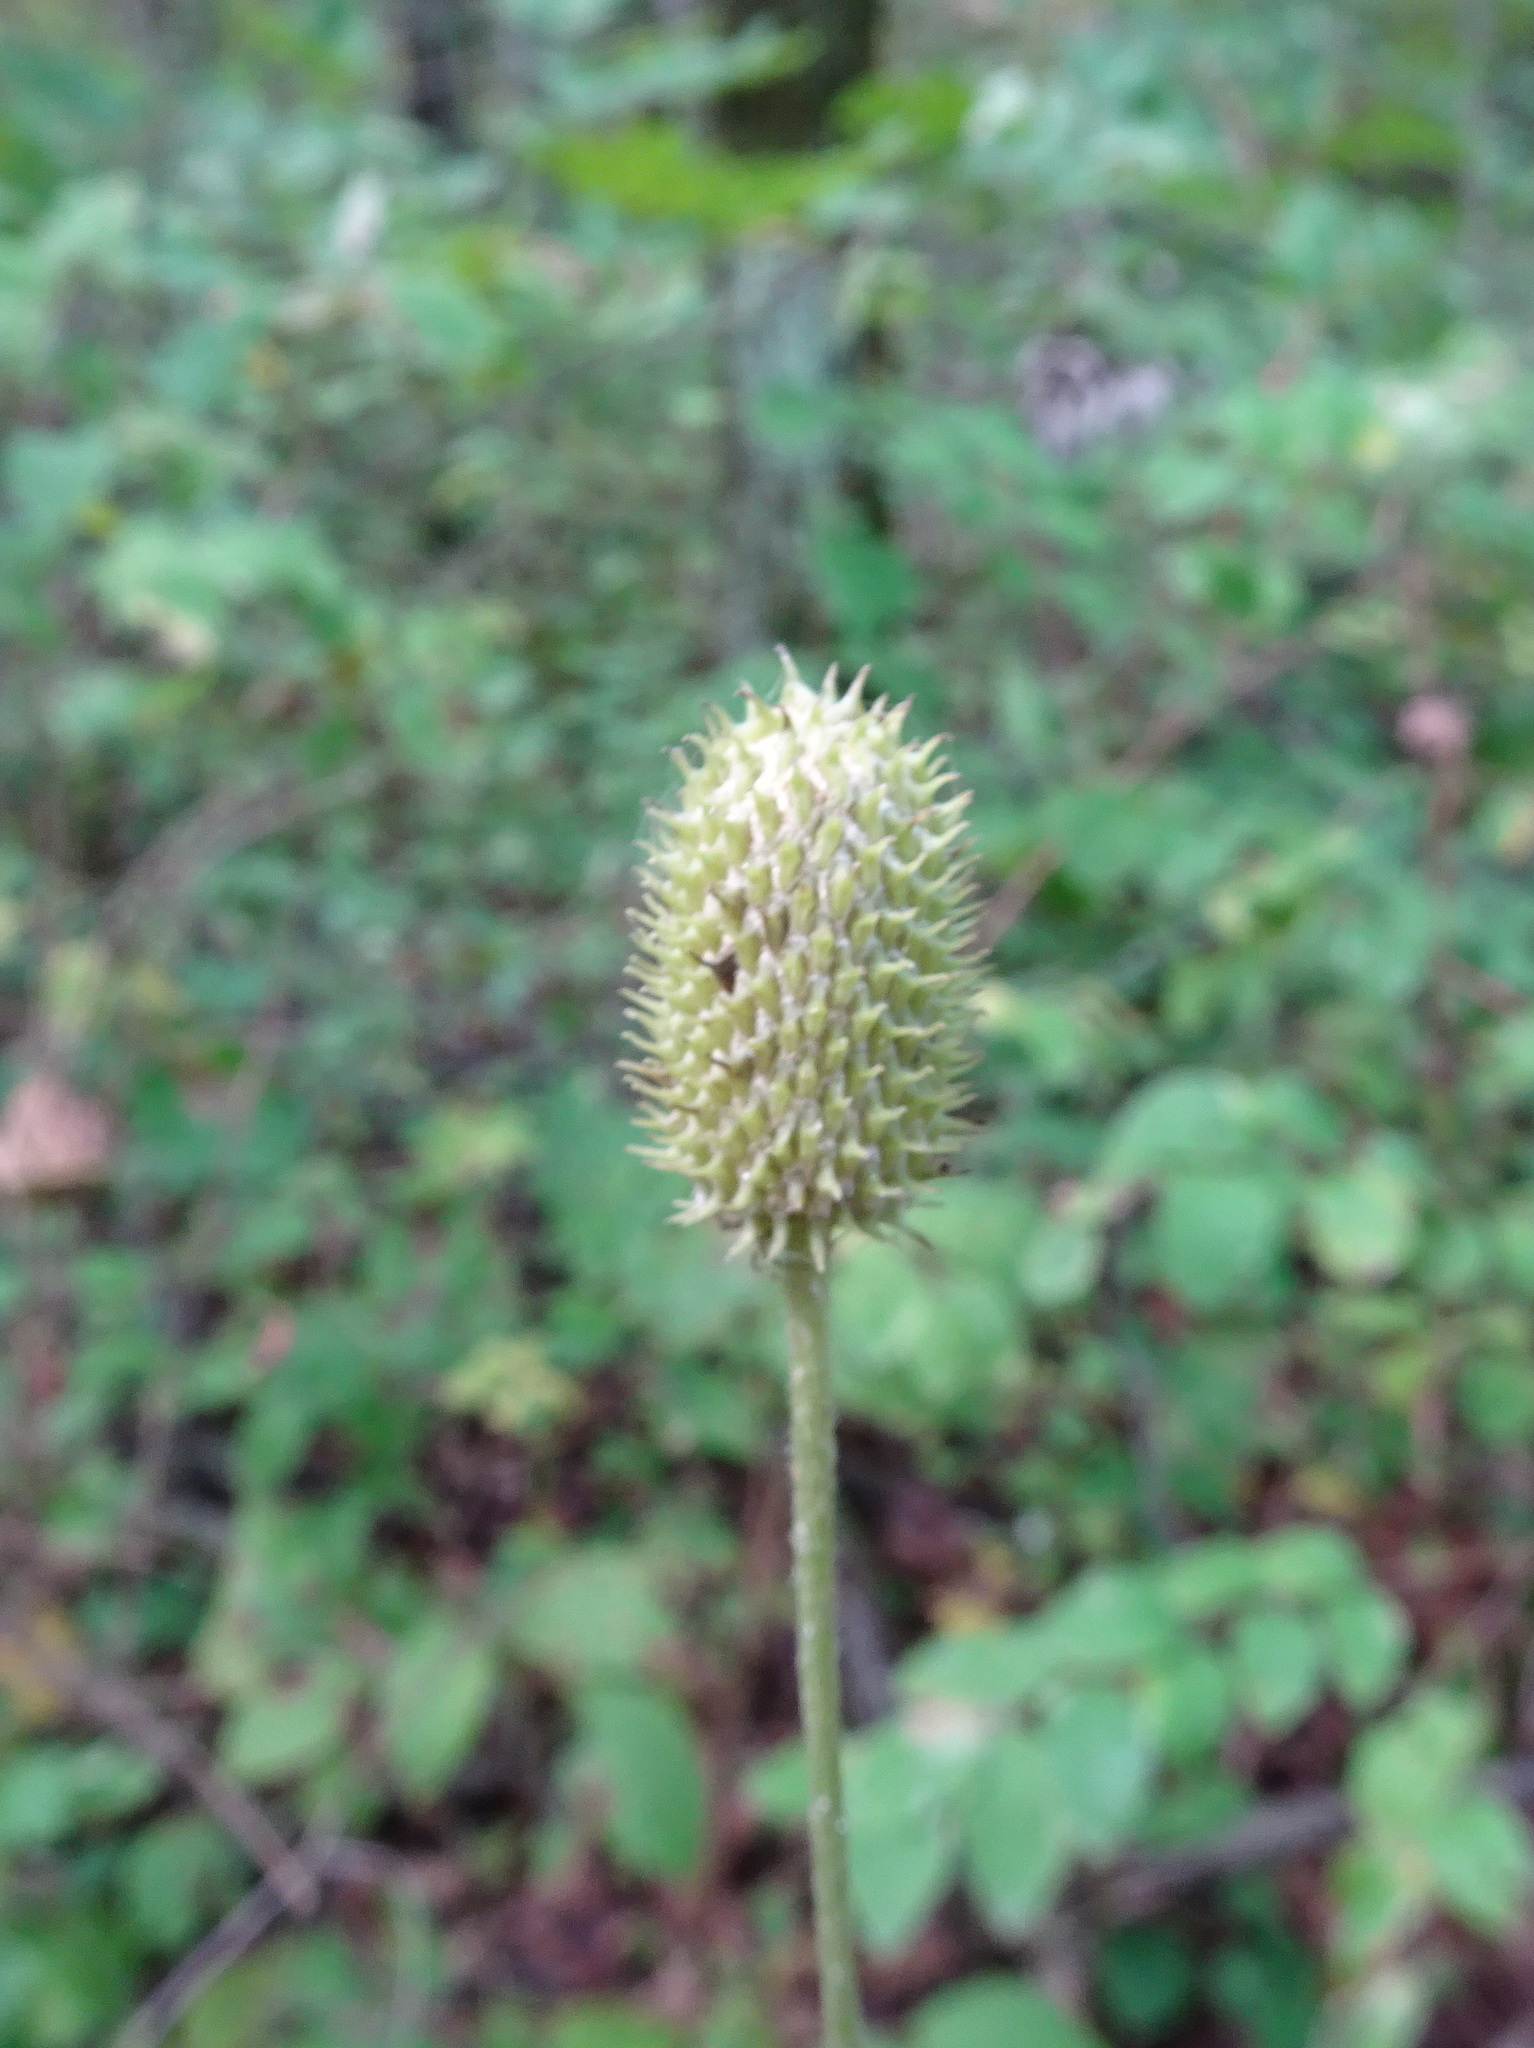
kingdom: Plantae
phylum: Tracheophyta
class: Magnoliopsida
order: Ranunculales
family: Ranunculaceae
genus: Anemone
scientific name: Anemone virginiana
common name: Tall anemone
